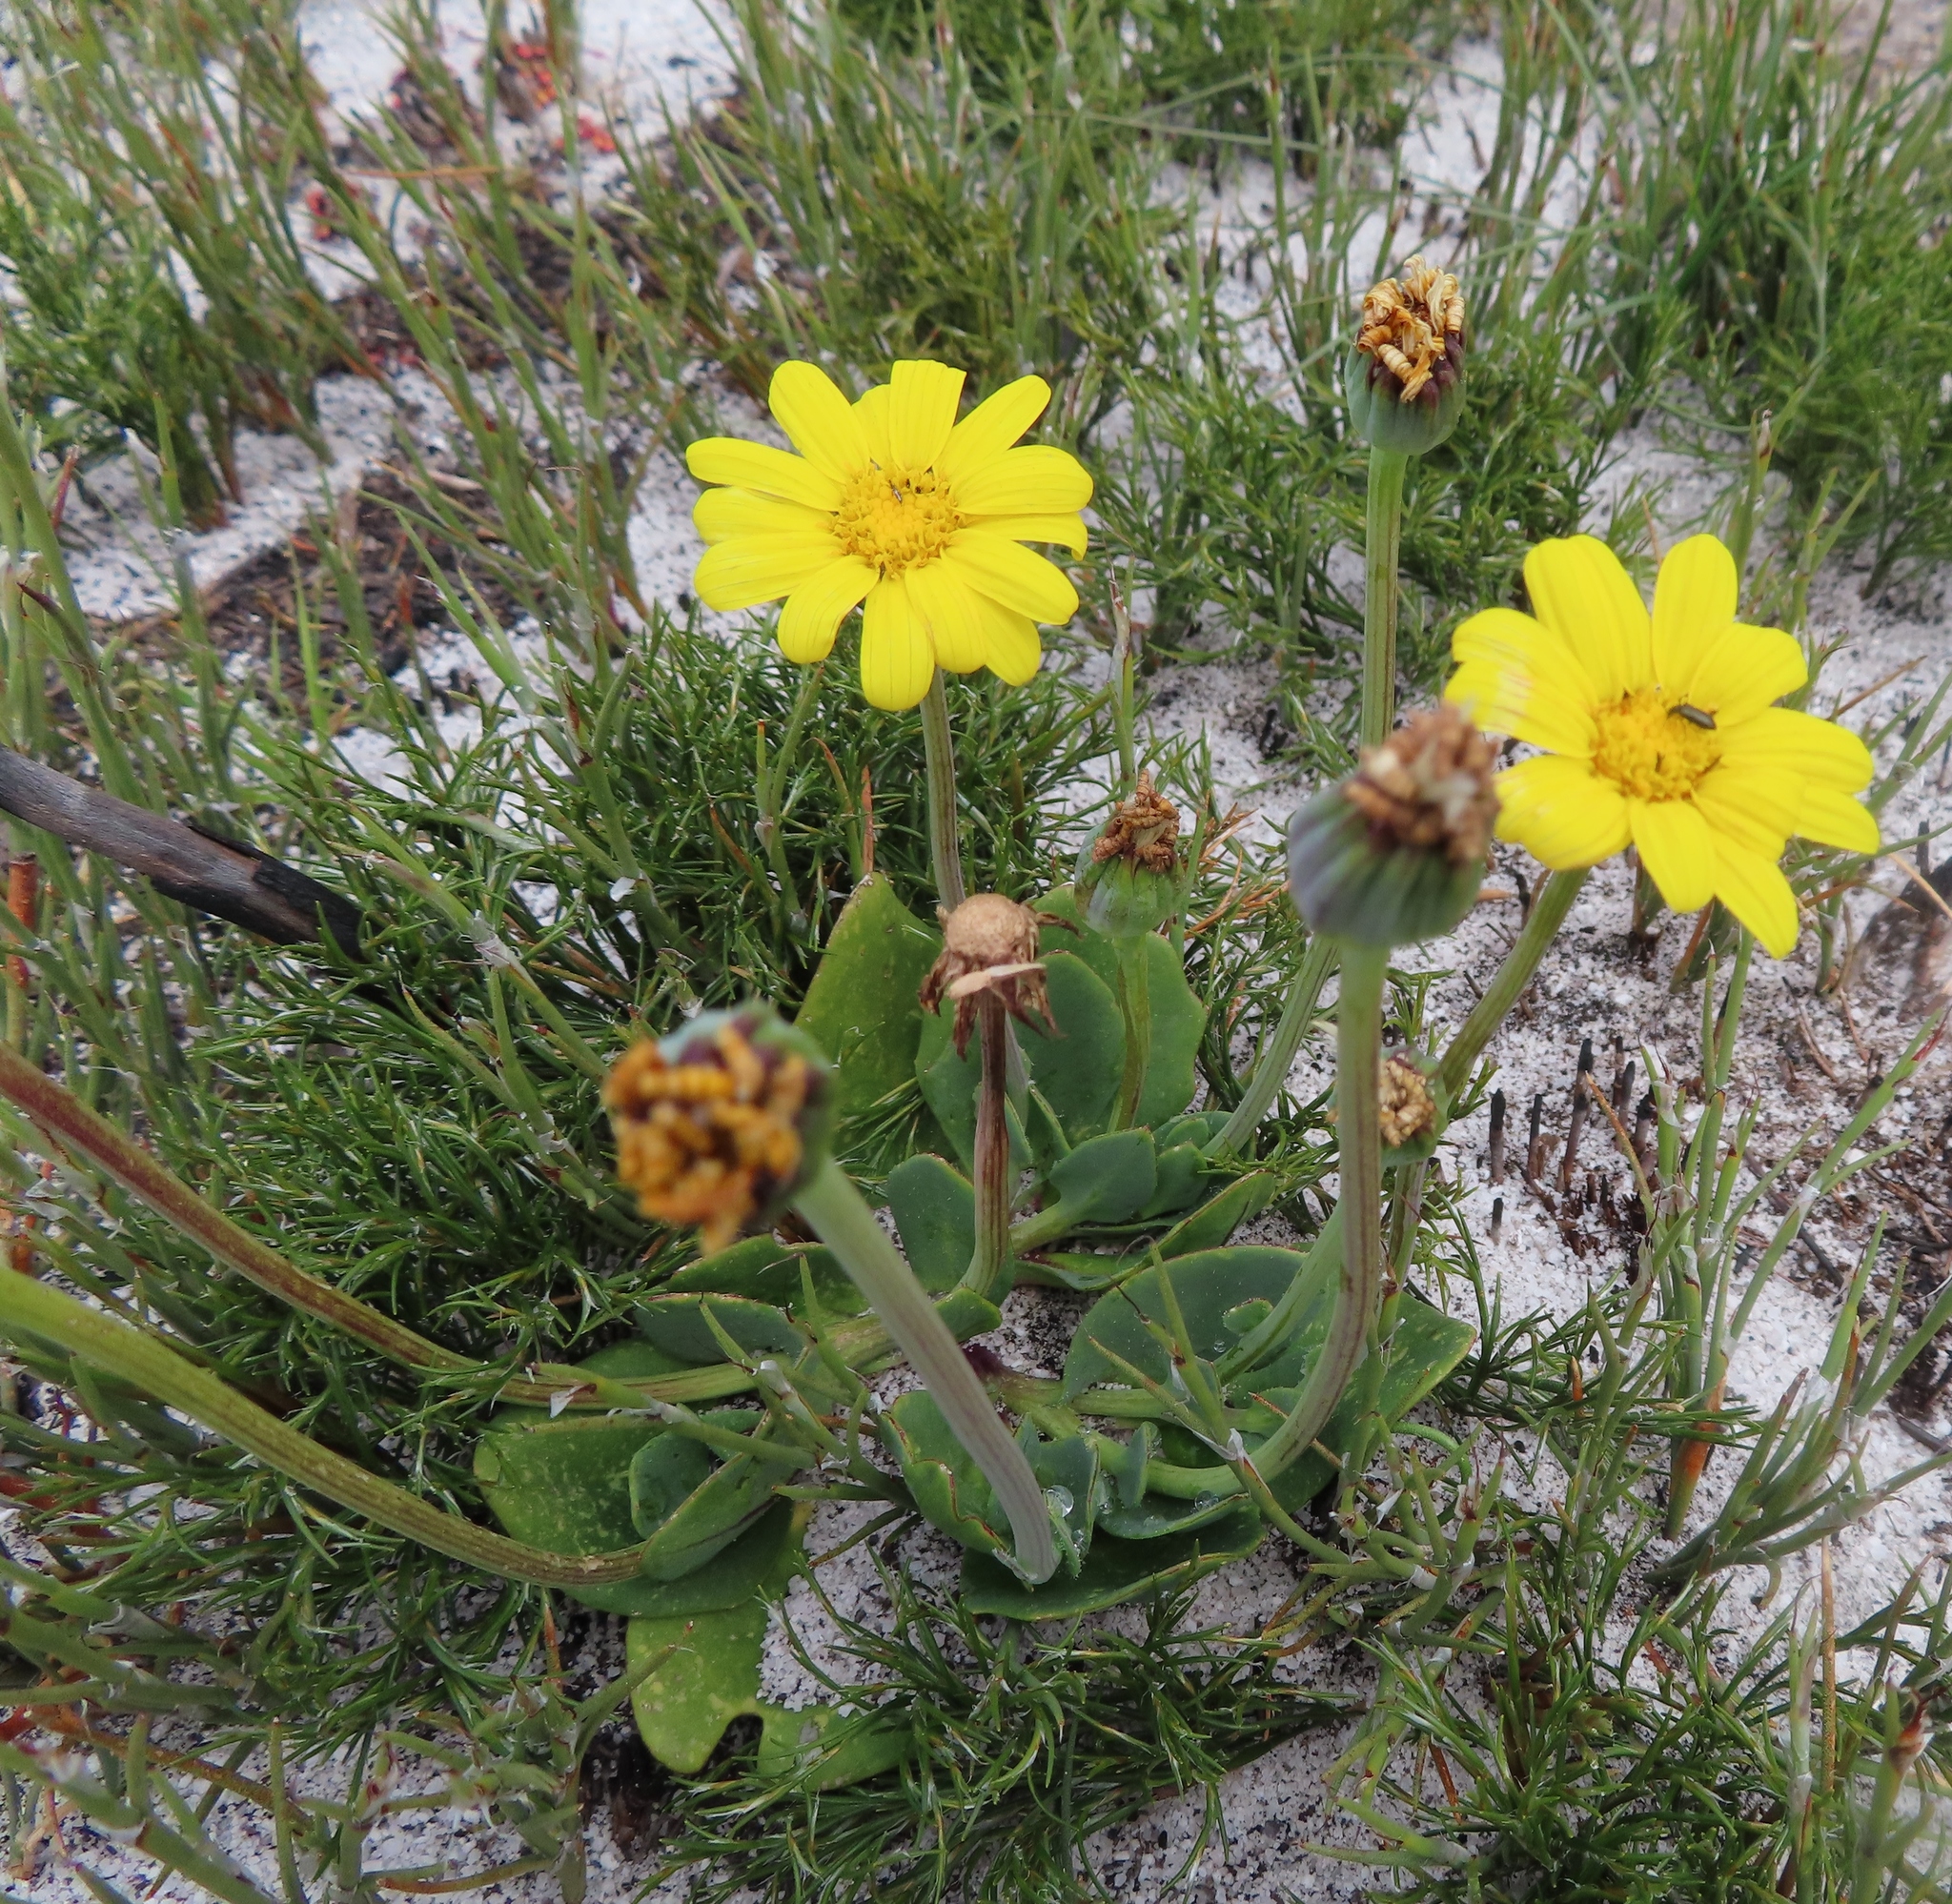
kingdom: Plantae
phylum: Tracheophyta
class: Magnoliopsida
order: Asterales
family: Asteraceae
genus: Othonna
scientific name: Othonna bulbosa
